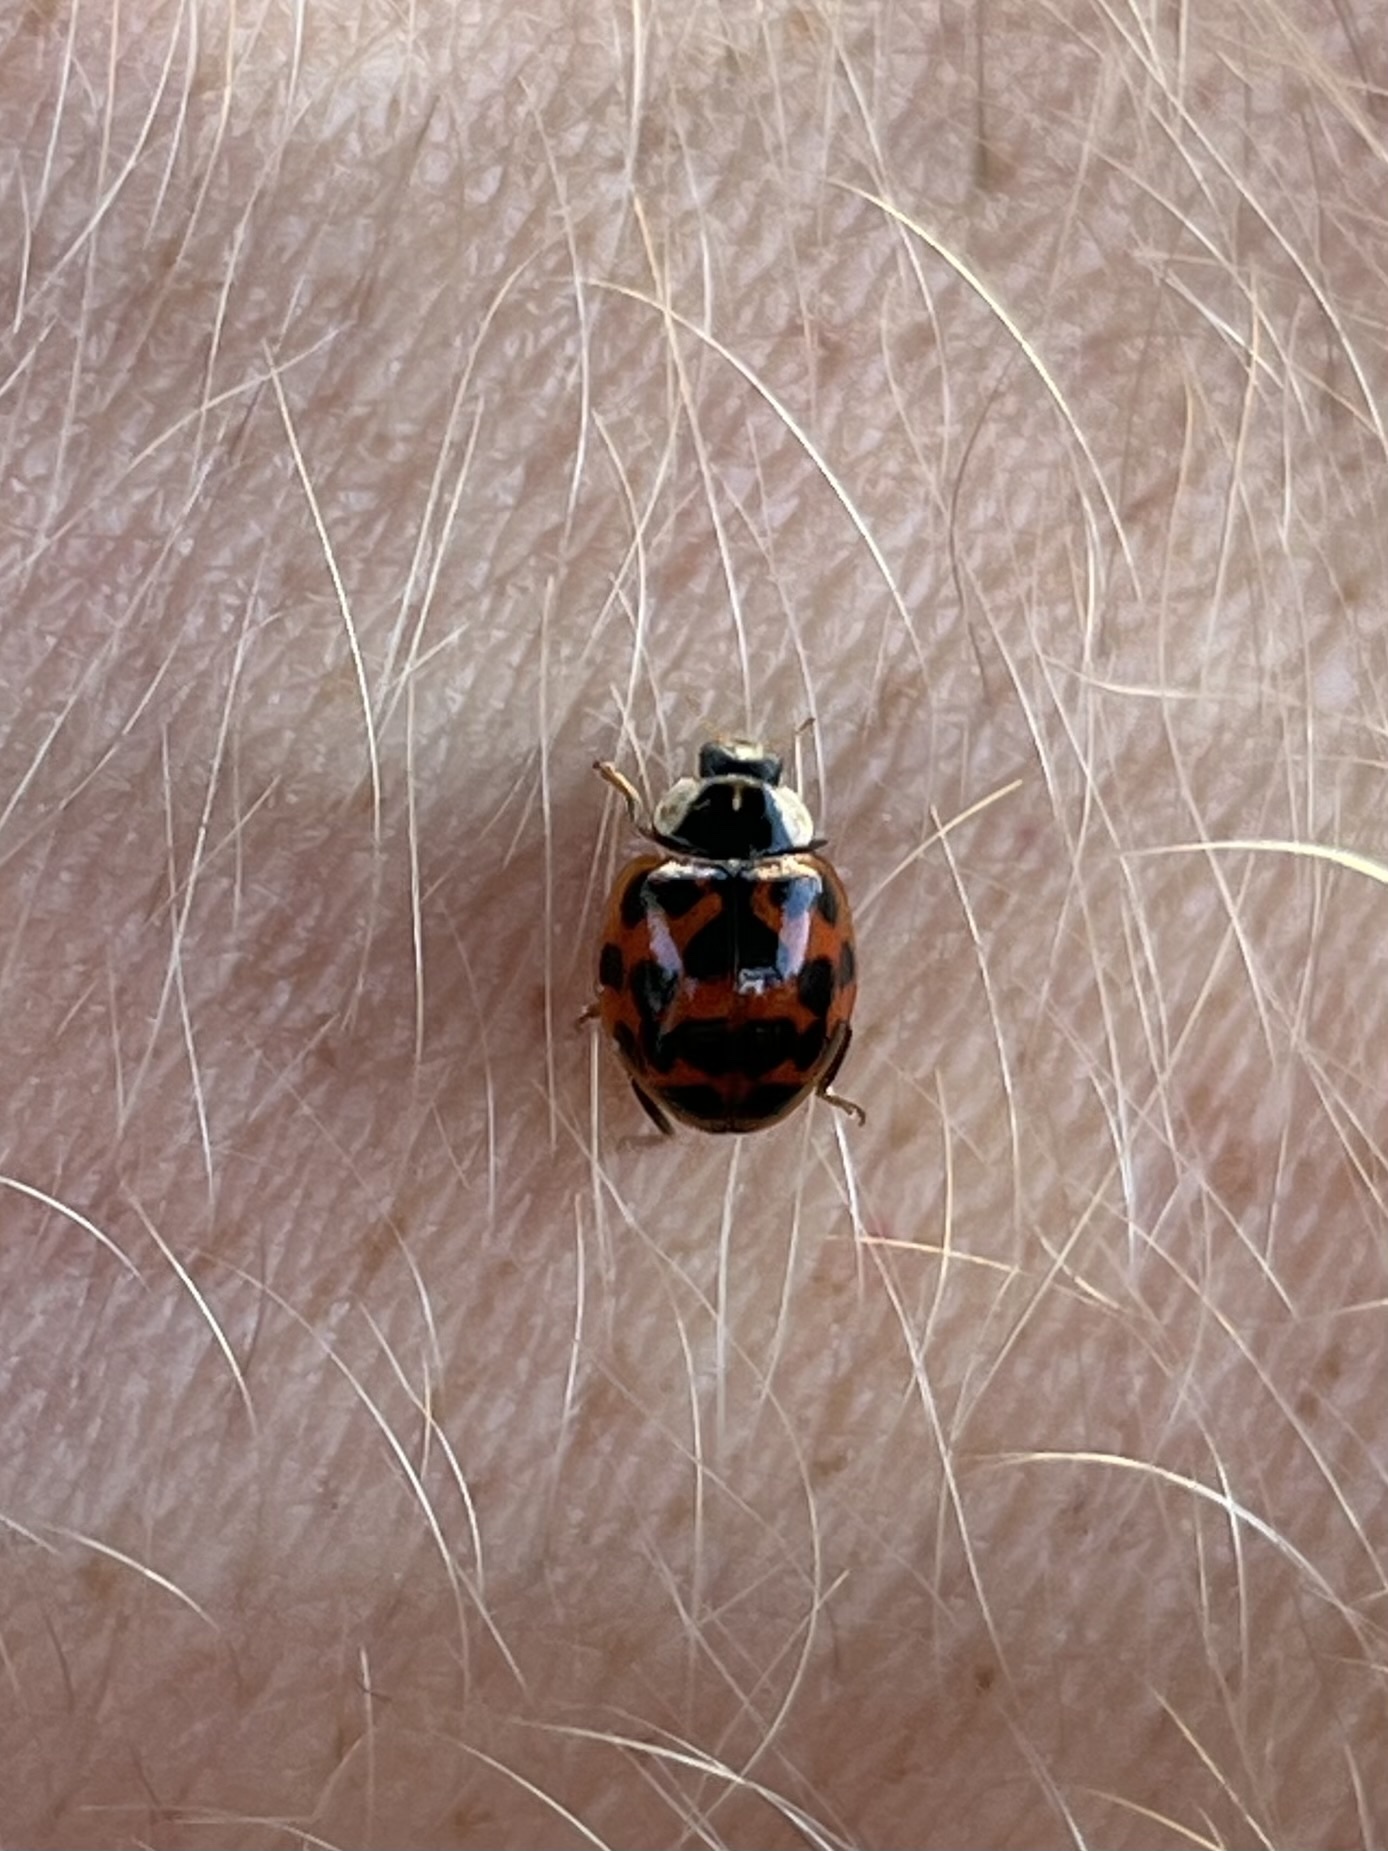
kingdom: Animalia
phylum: Arthropoda
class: Insecta
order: Coleoptera
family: Coccinellidae
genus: Harmonia
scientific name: Harmonia axyridis
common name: Harlequin ladybird
